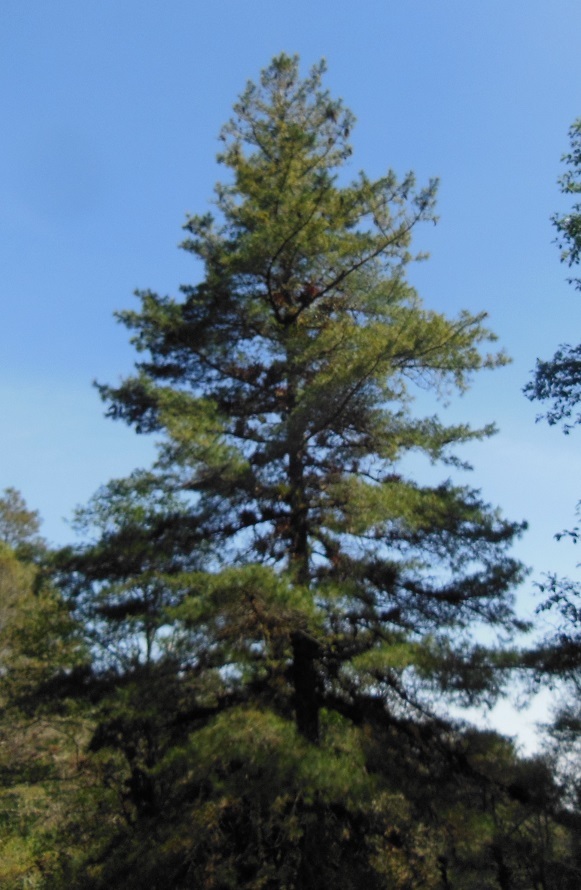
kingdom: Plantae
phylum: Tracheophyta
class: Pinopsida
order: Pinales
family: Pinaceae
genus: Pinus
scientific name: Pinus ayacahuite
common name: Mexican white pine
